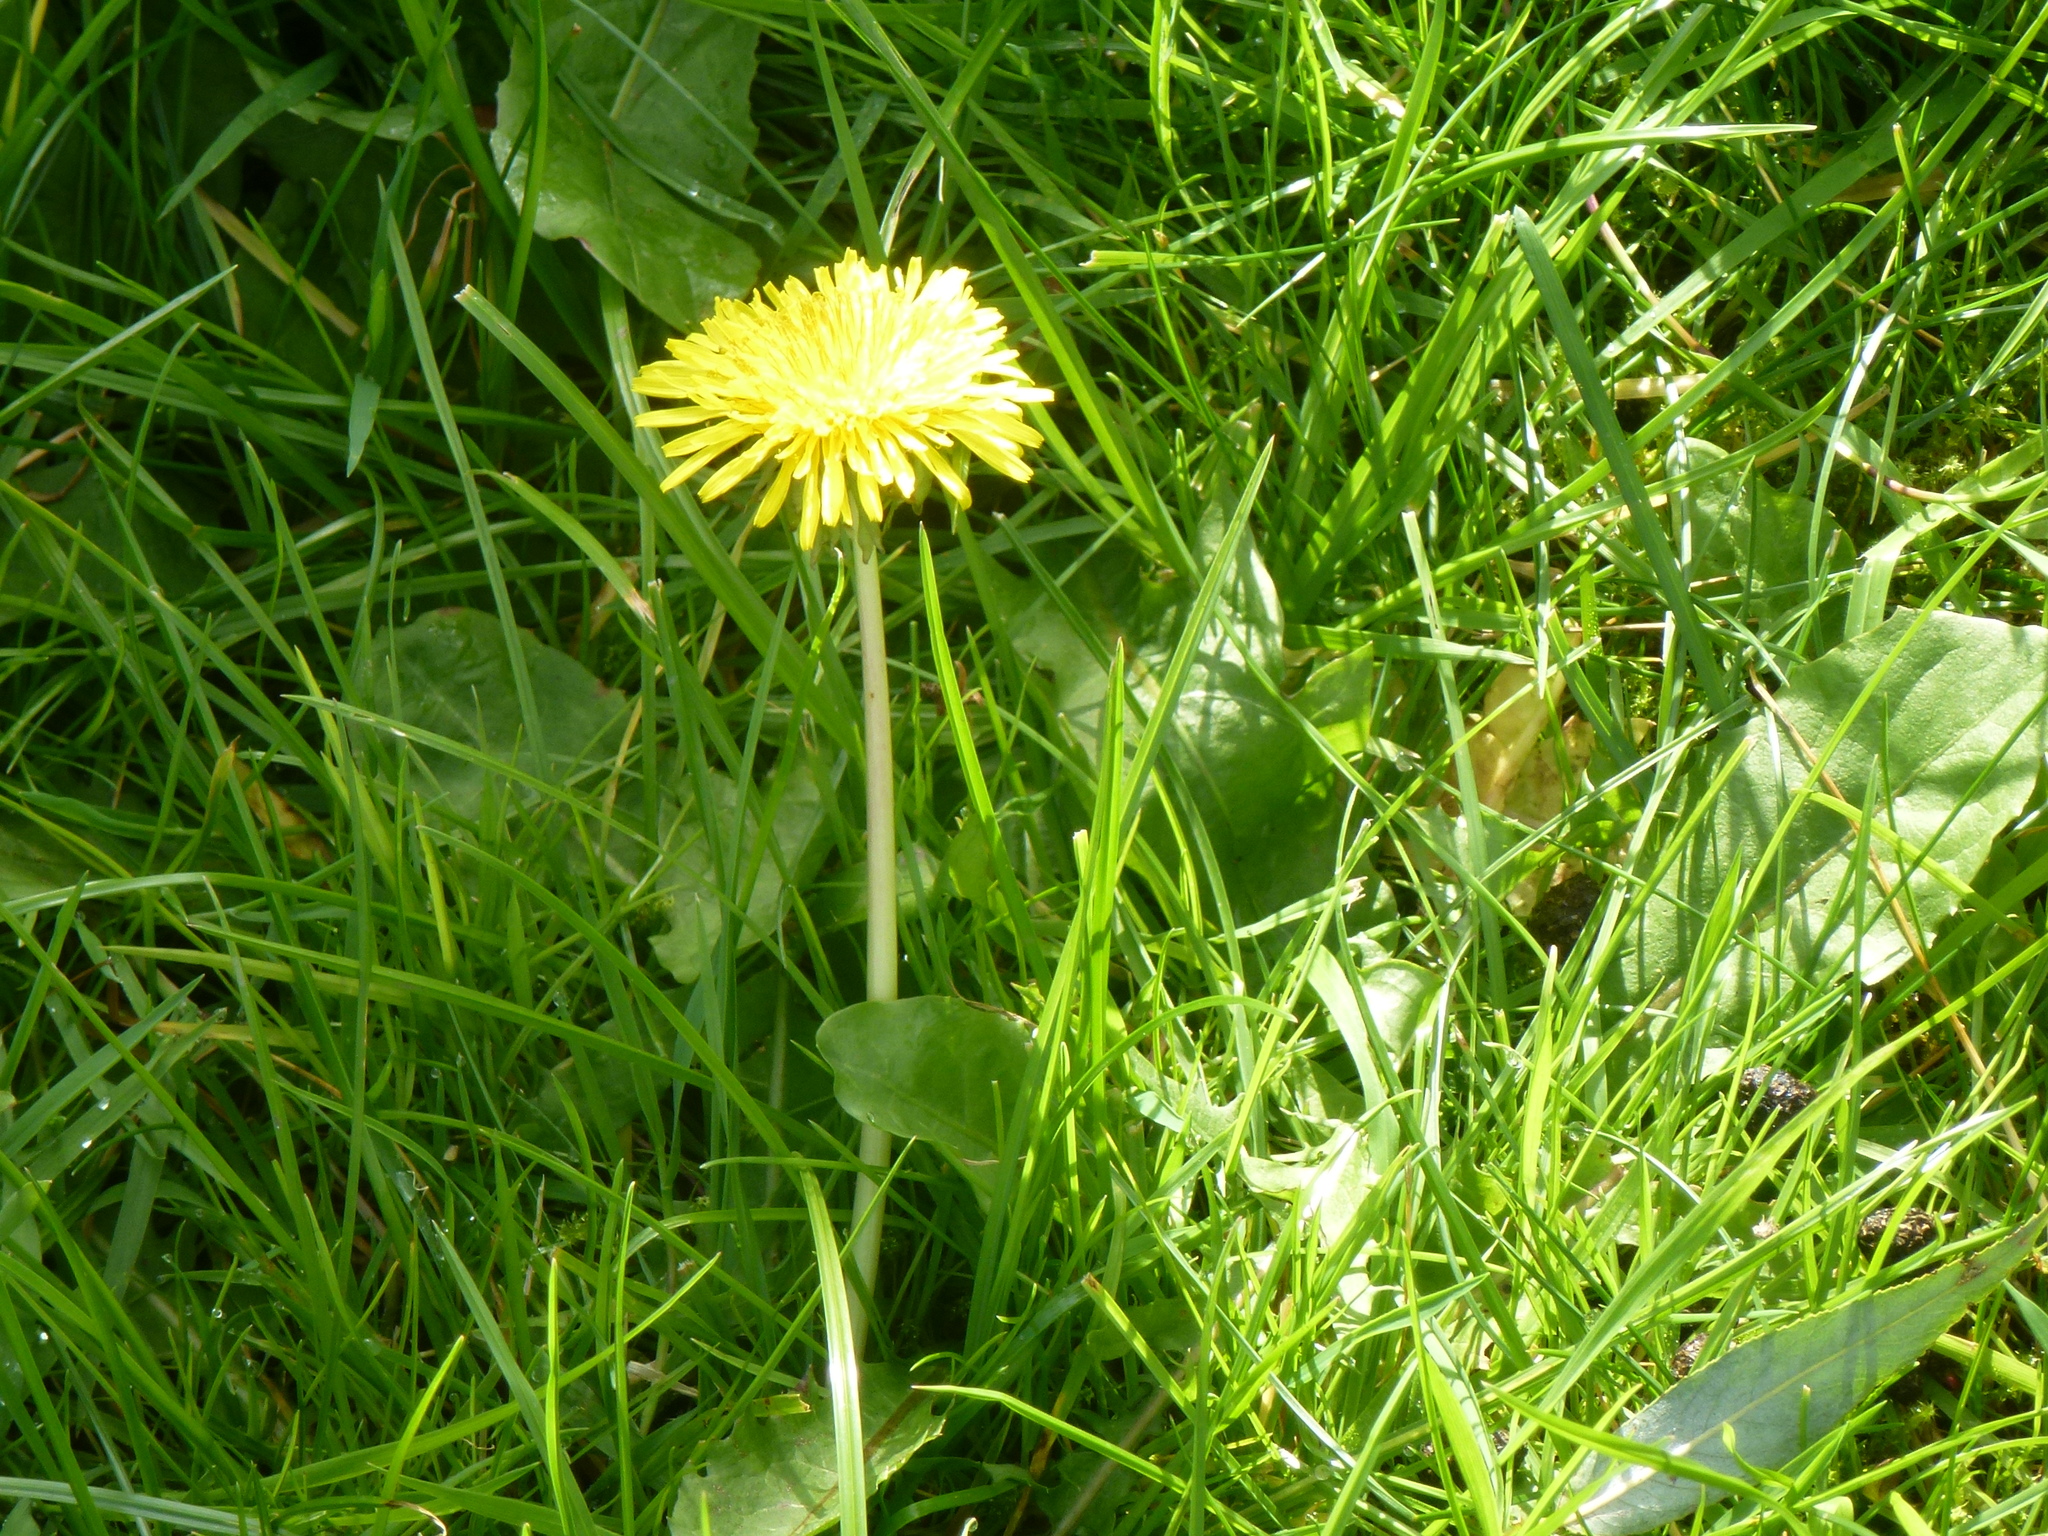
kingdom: Plantae
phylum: Tracheophyta
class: Magnoliopsida
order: Asterales
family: Asteraceae
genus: Taraxacum
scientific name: Taraxacum officinale
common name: Common dandelion
